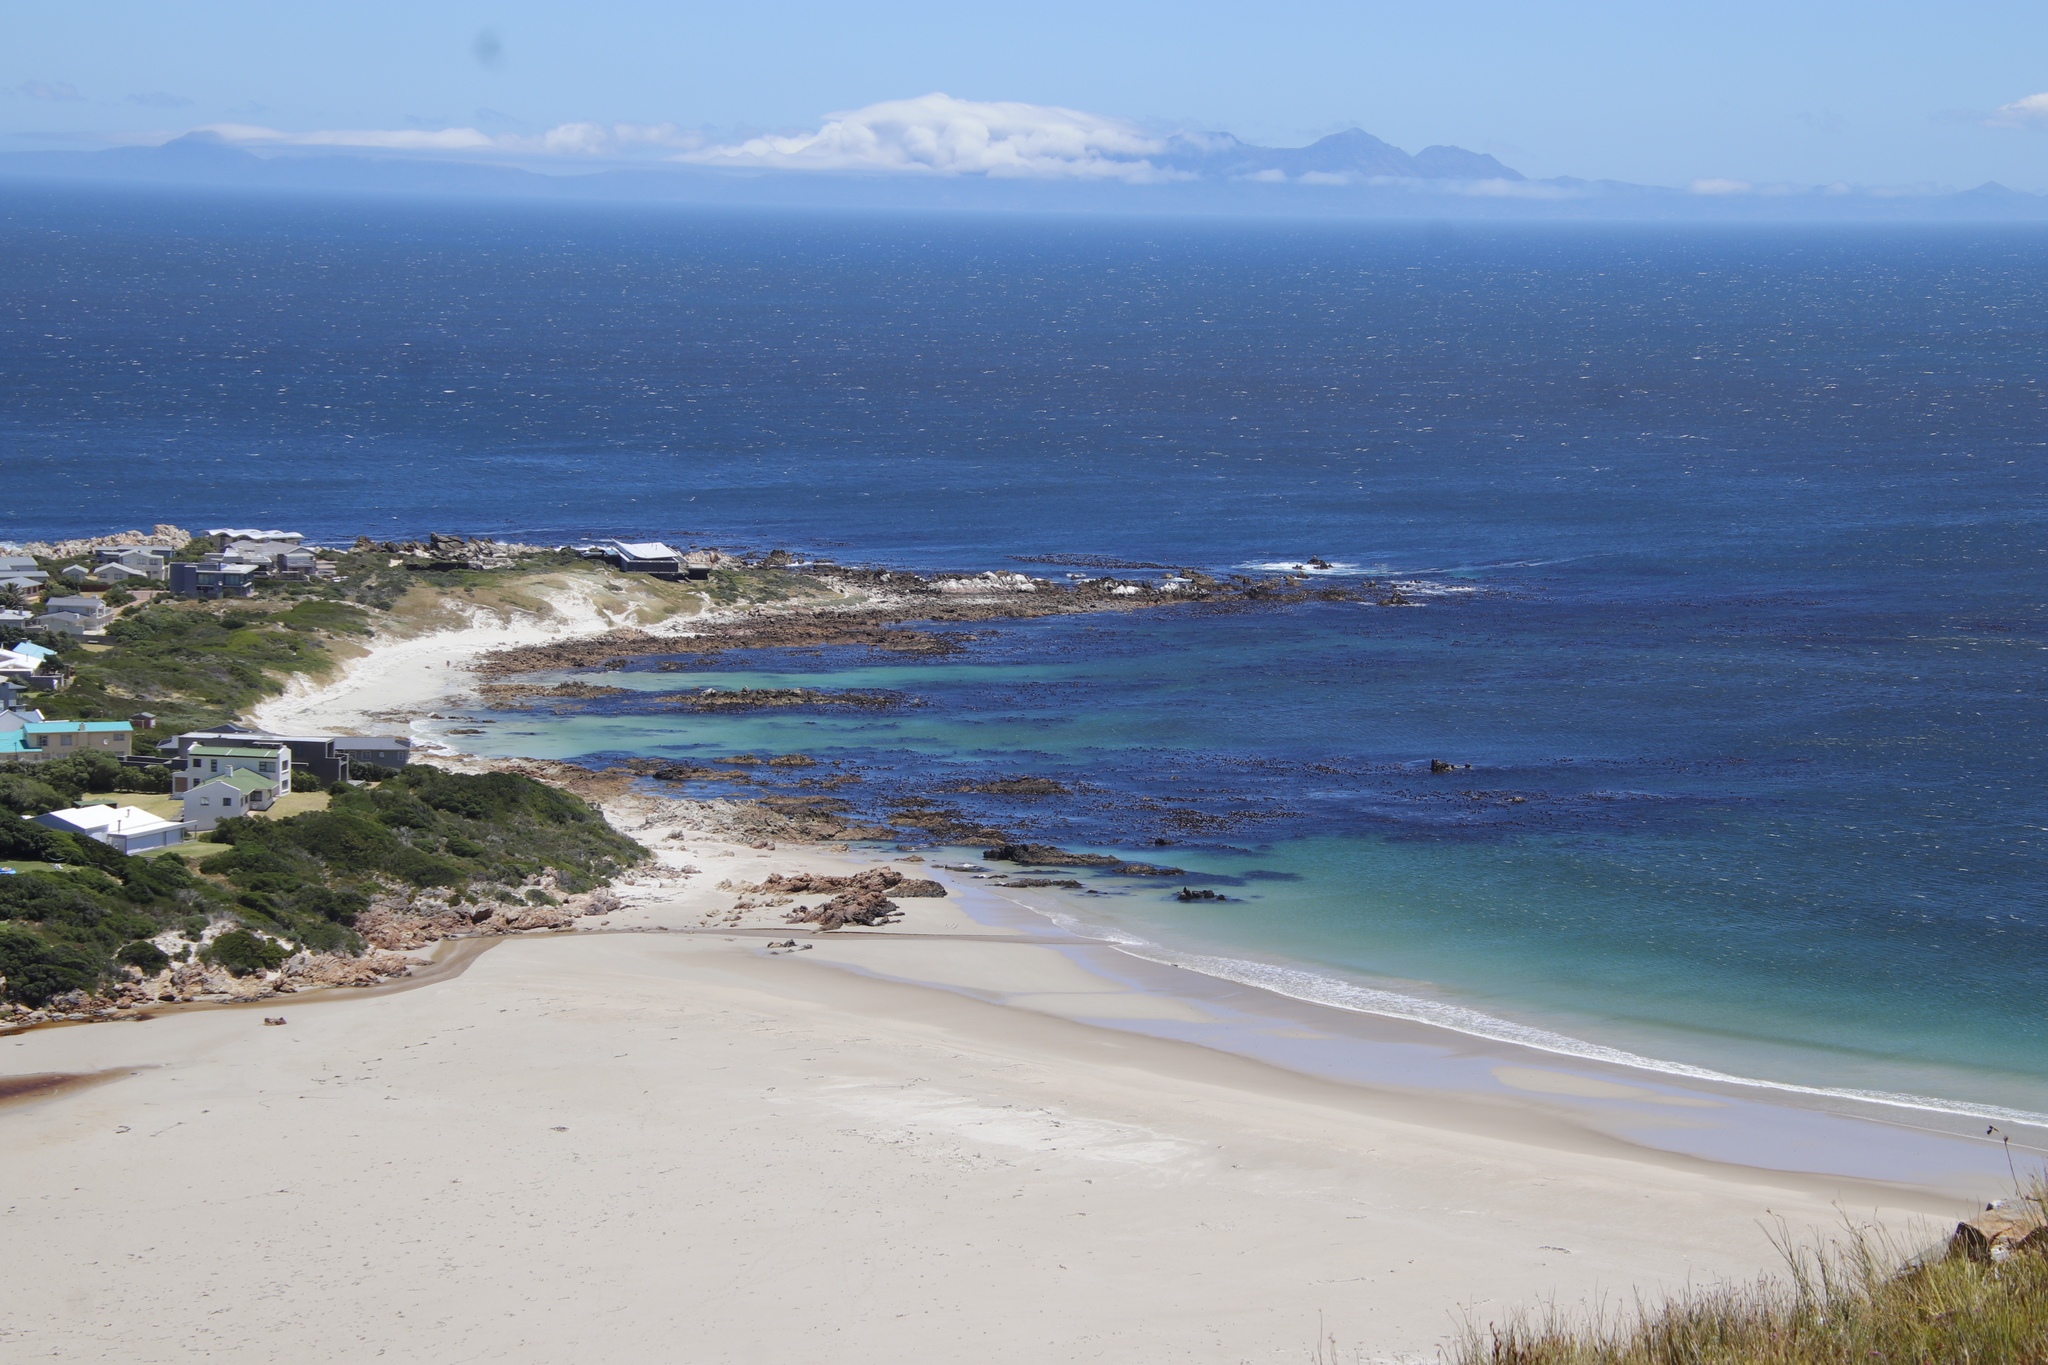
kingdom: Chromista
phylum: Ochrophyta
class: Phaeophyceae
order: Laminariales
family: Lessoniaceae
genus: Ecklonia
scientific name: Ecklonia
